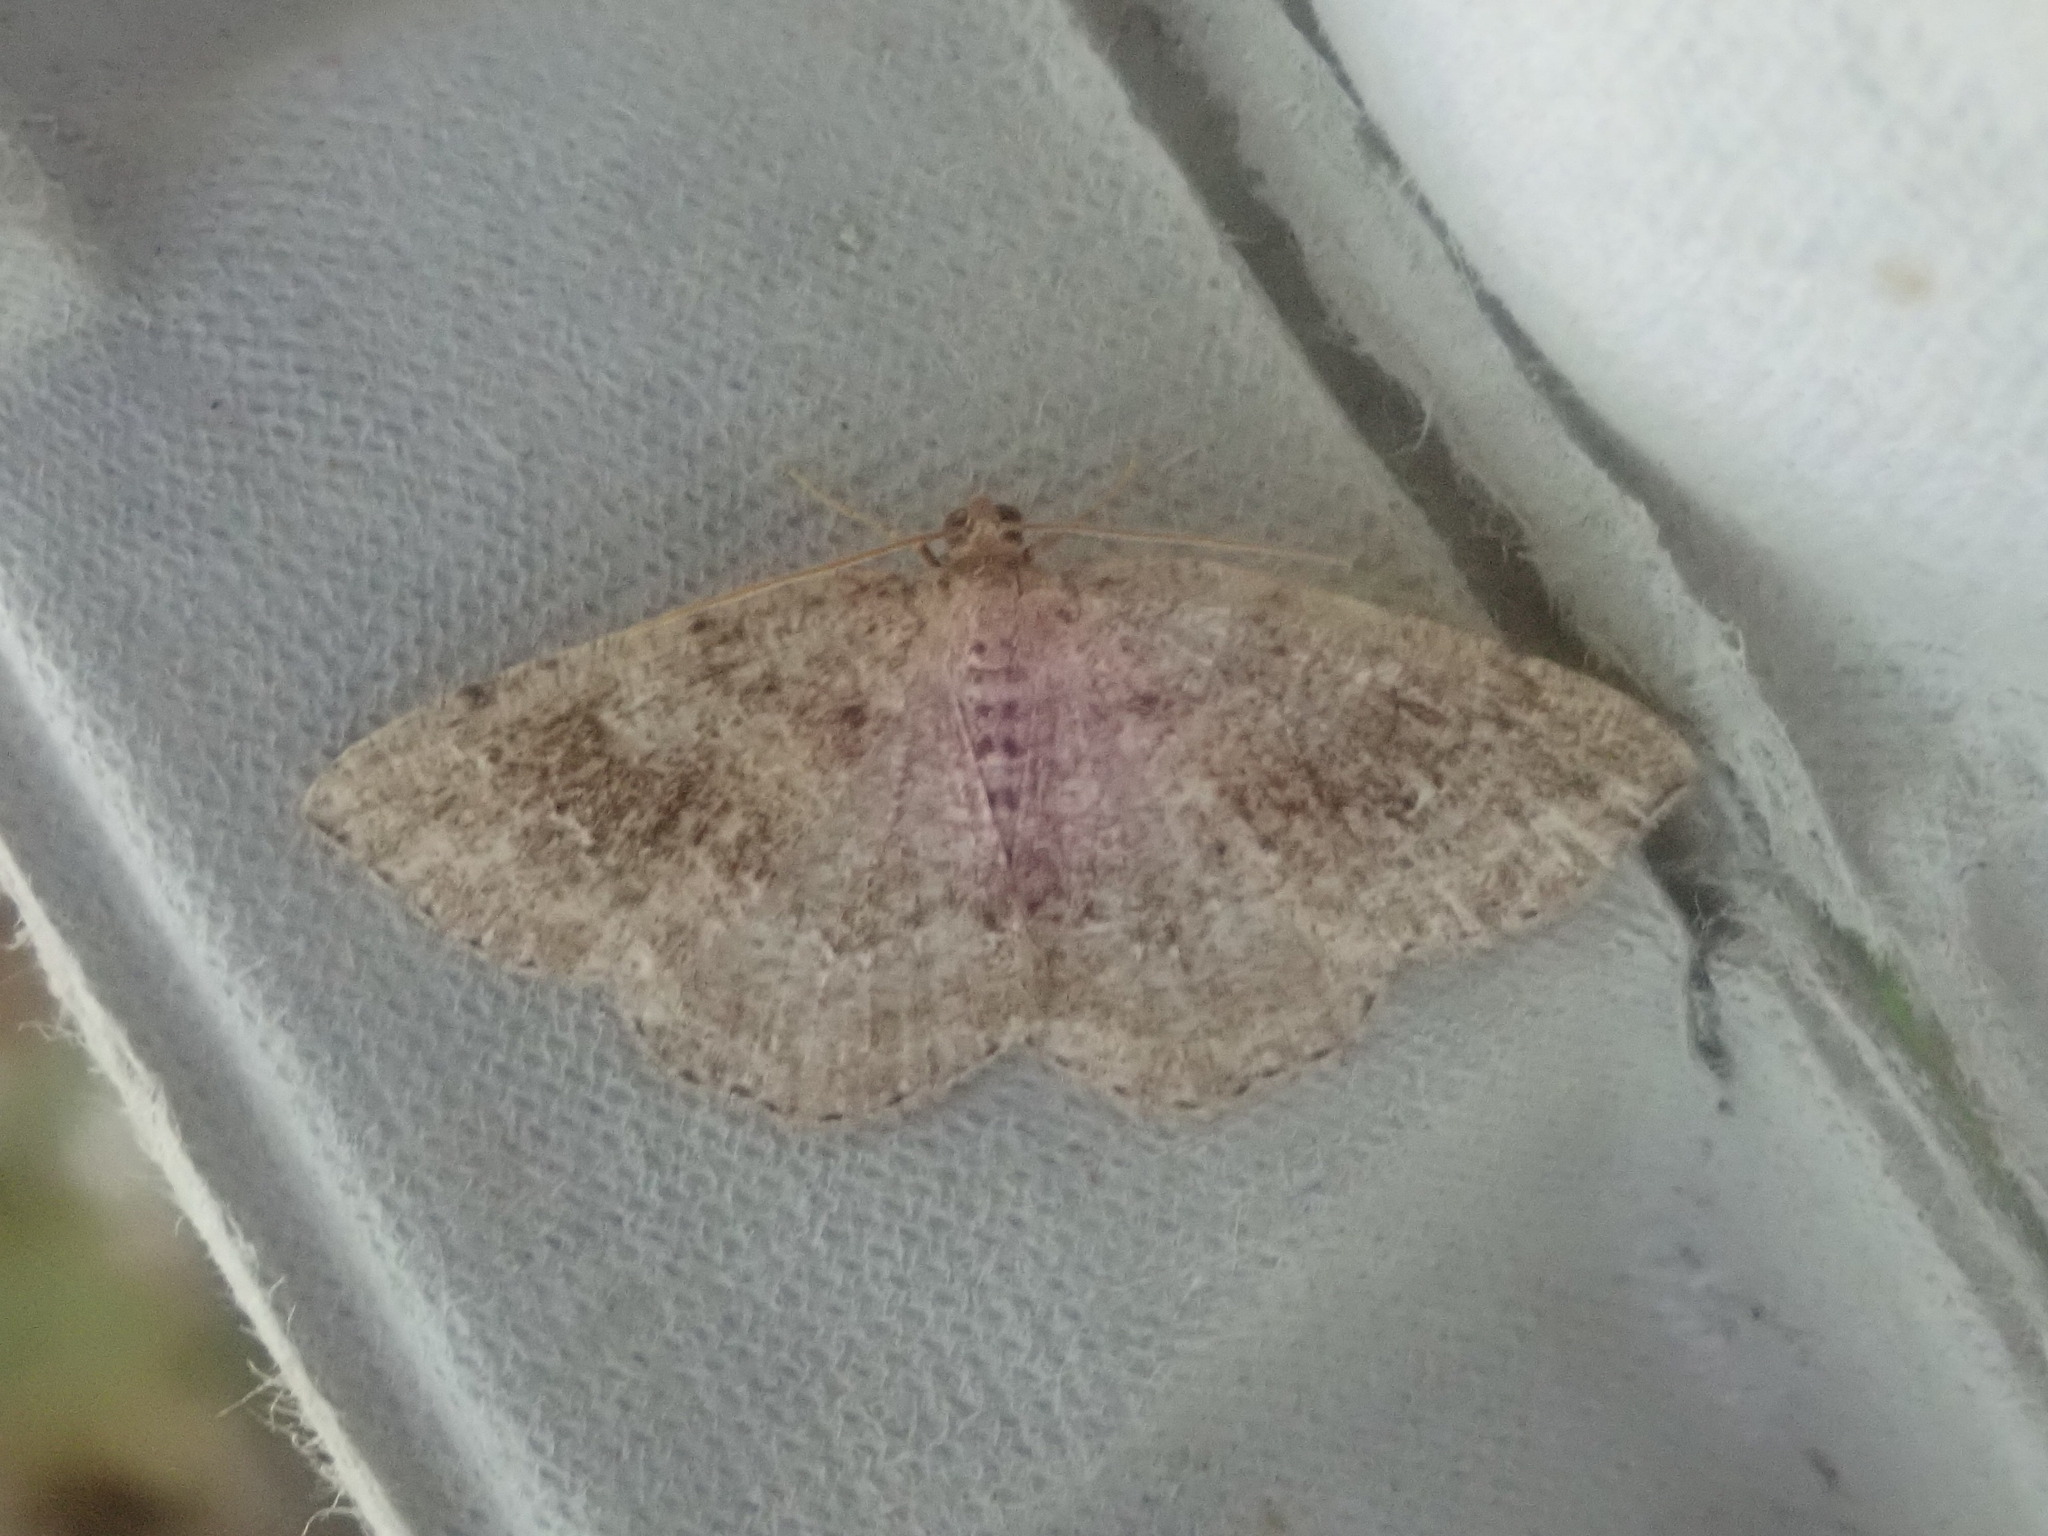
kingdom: Animalia
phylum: Arthropoda
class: Insecta
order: Lepidoptera
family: Geometridae
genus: Homochlodes
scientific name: Homochlodes fritillaria
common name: Pale homochlodes
